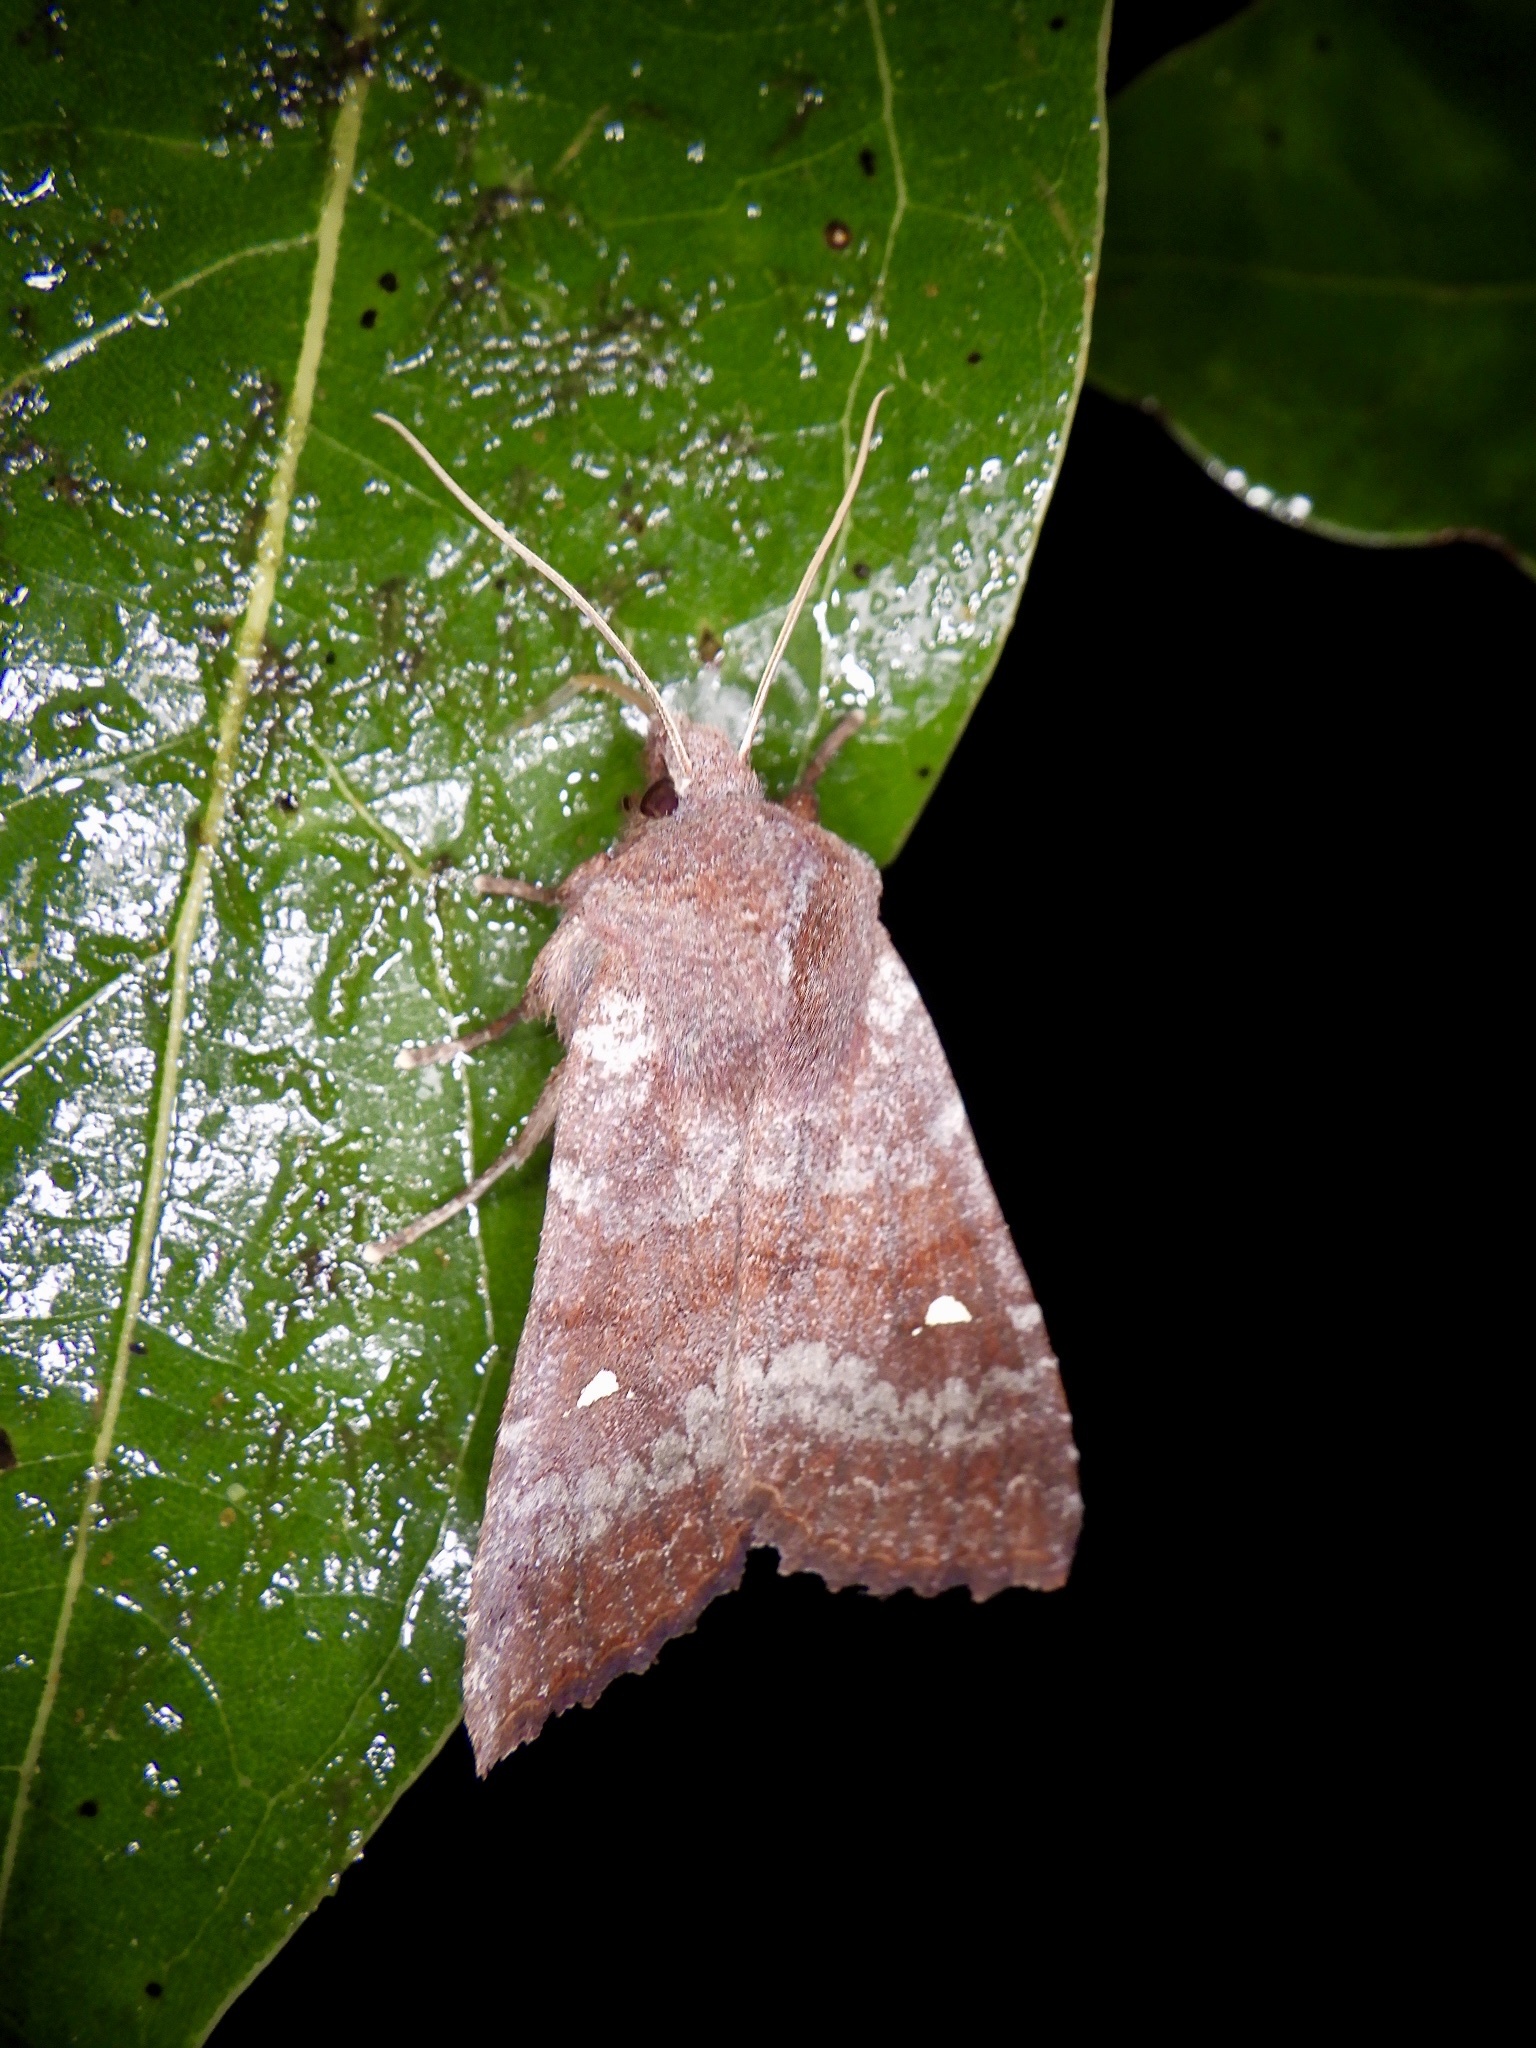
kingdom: Animalia
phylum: Arthropoda
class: Insecta
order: Lepidoptera
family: Noctuidae
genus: Eupsilia
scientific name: Eupsilia unipuncta
